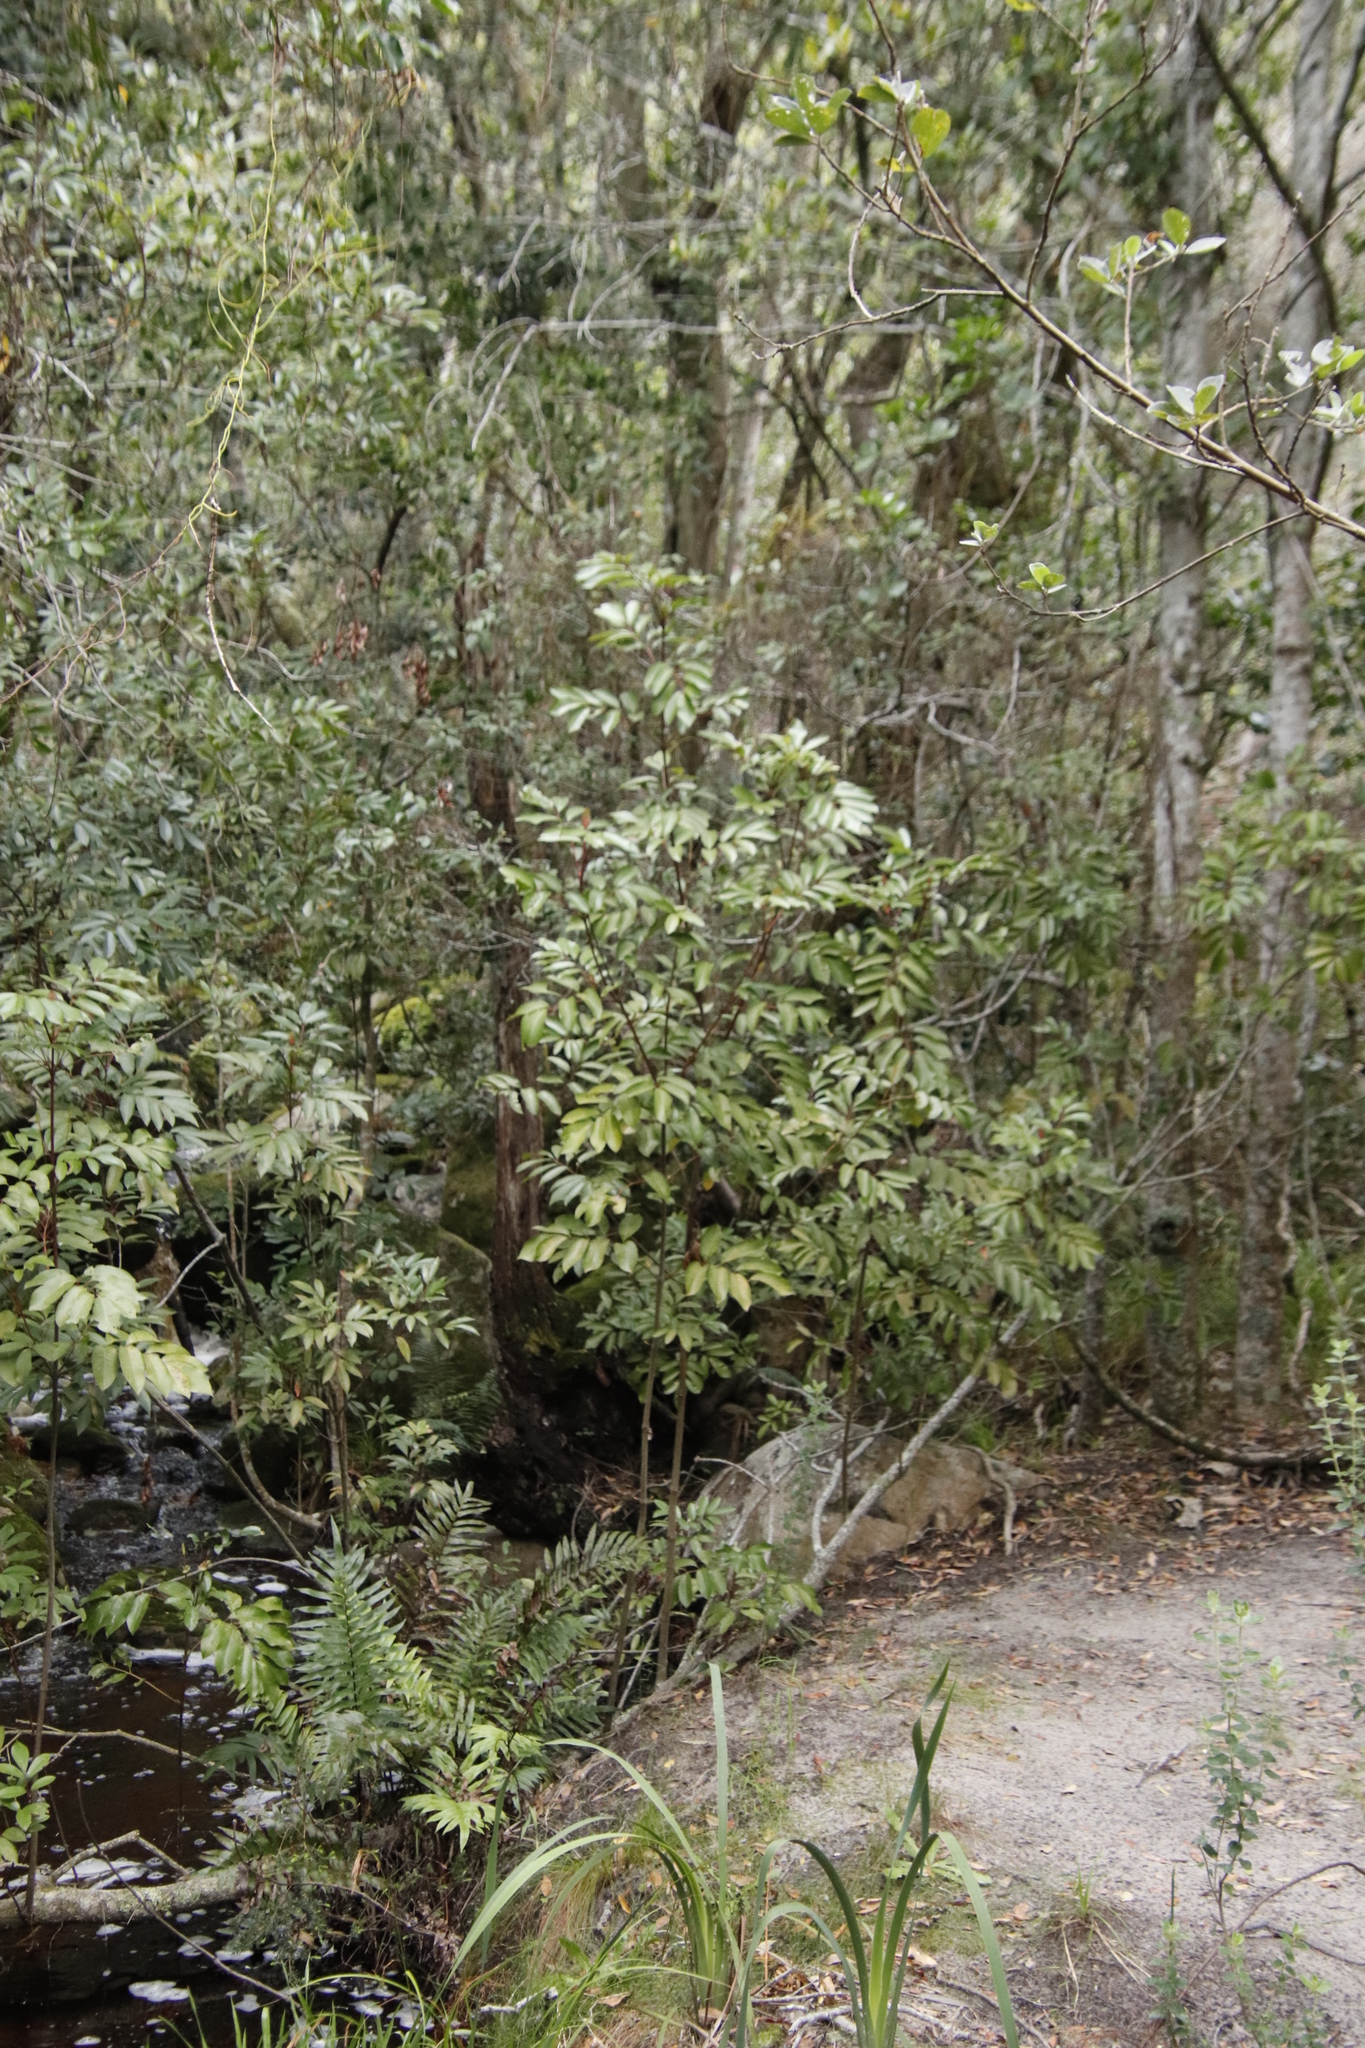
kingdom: Plantae
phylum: Tracheophyta
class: Magnoliopsida
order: Oxalidales
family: Cunoniaceae
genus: Cunonia
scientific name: Cunonia capensis
